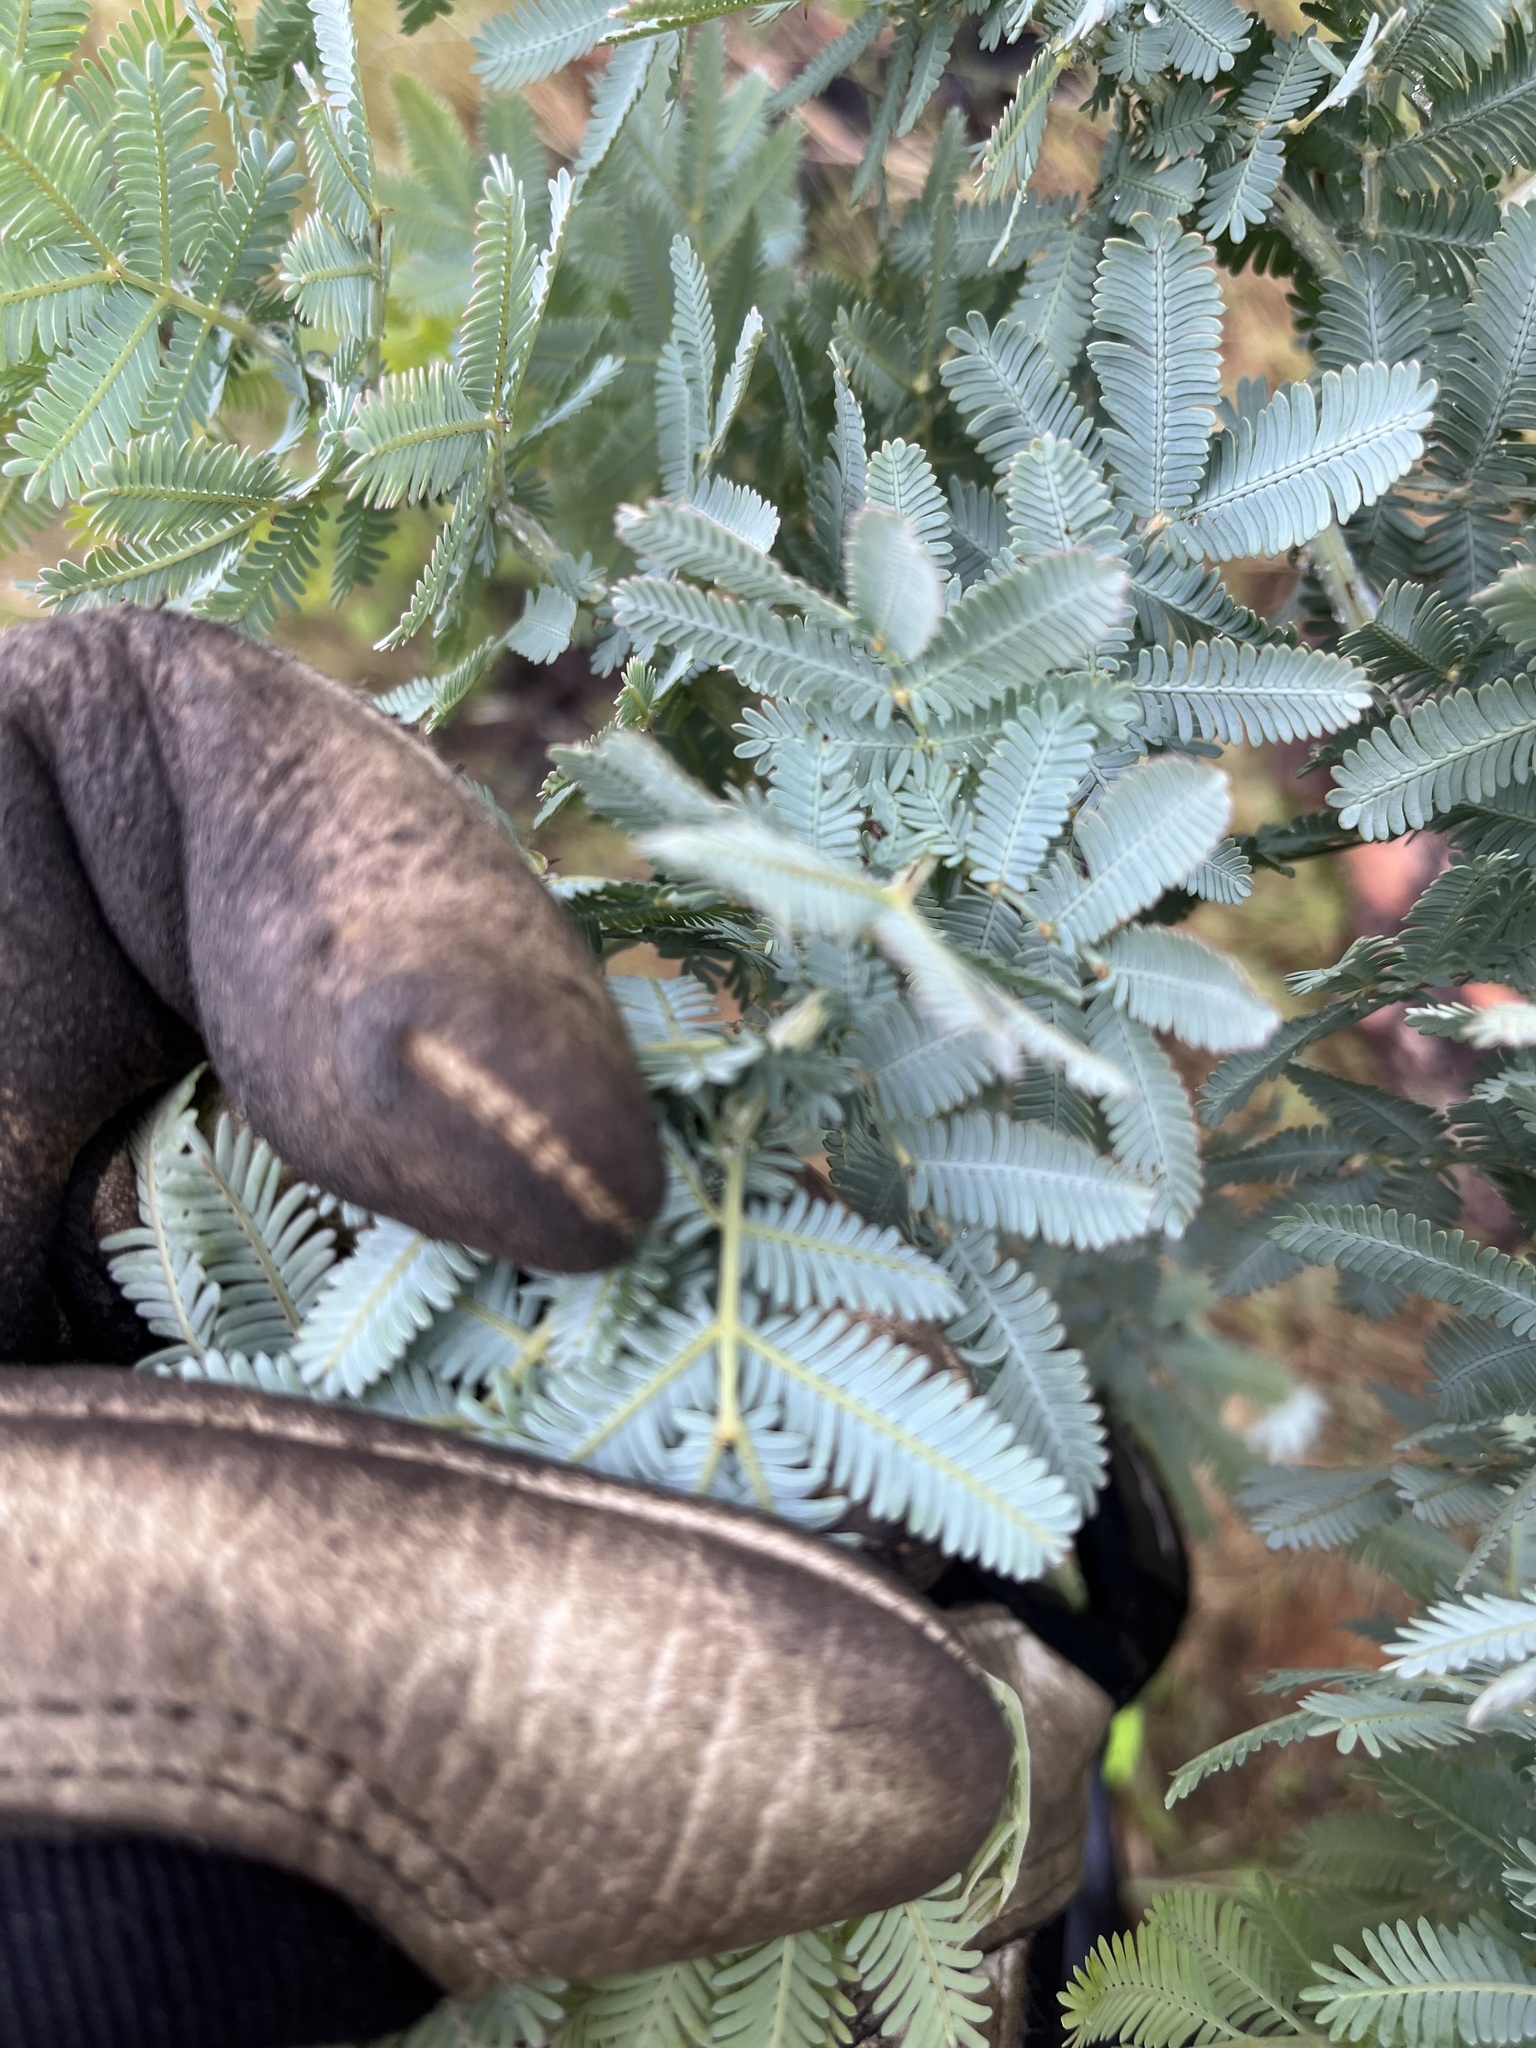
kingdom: Plantae
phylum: Tracheophyta
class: Magnoliopsida
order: Fabales
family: Fabaceae
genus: Acacia
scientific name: Acacia baileyana
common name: Cootamundra wattle
